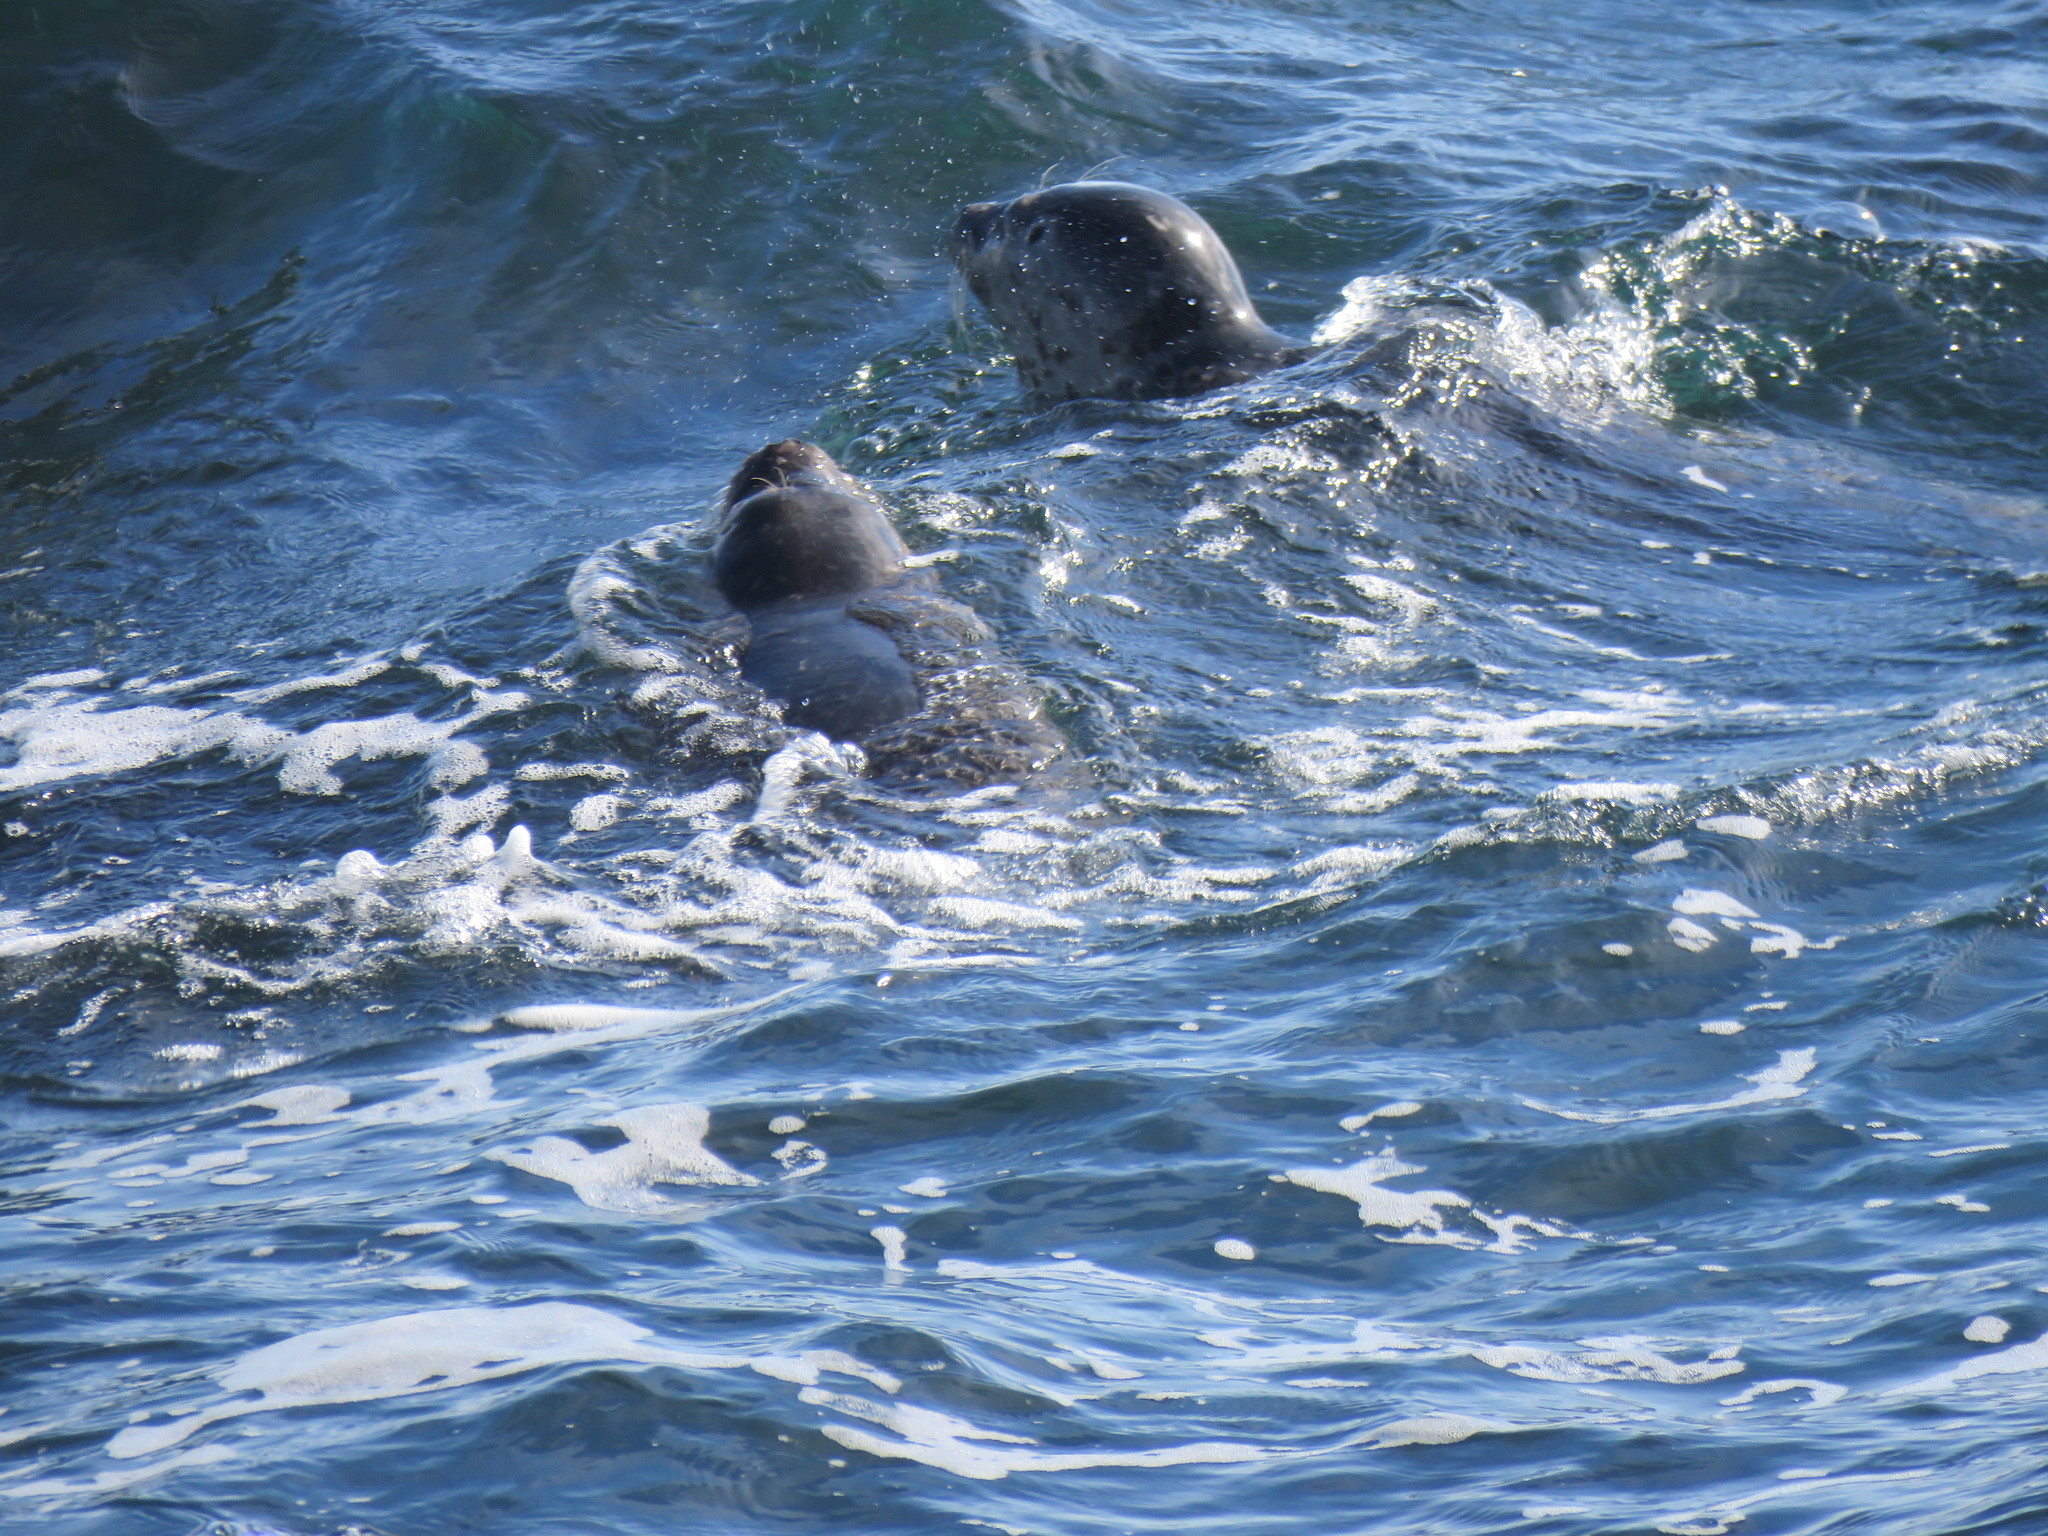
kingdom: Animalia
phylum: Chordata
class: Mammalia
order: Carnivora
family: Phocidae
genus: Phoca
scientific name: Phoca vitulina
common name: Harbor seal
